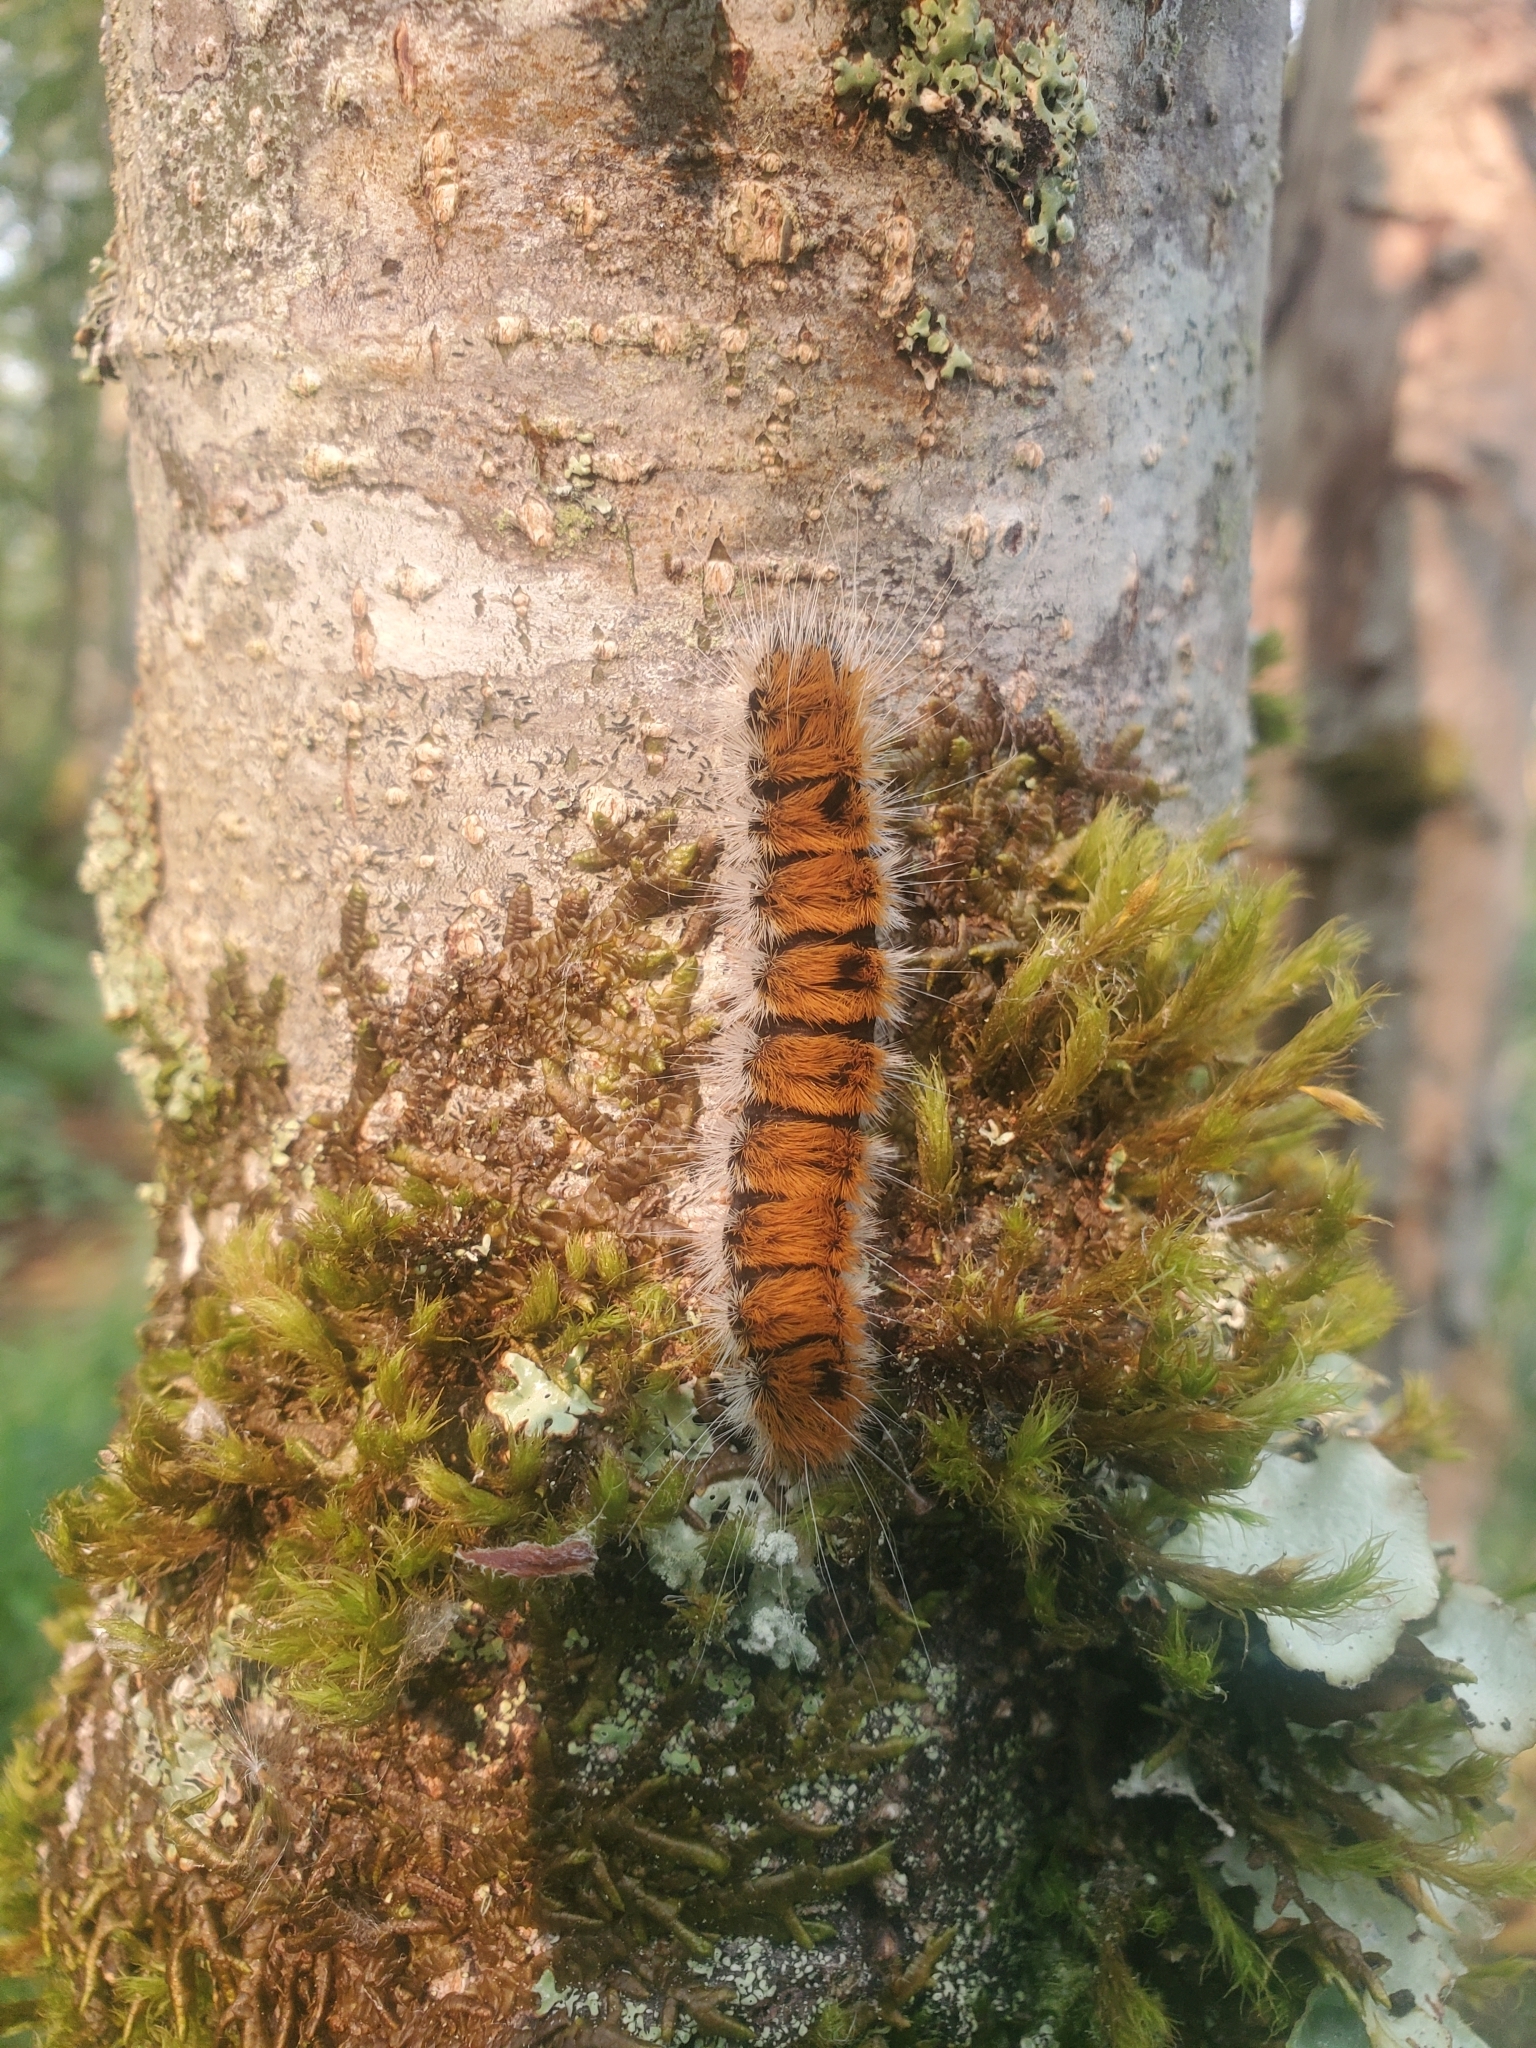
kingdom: Animalia
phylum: Arthropoda
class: Insecta
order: Lepidoptera
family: Noctuidae
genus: Acronicta
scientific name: Acronicta insita
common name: Large gray dagger
